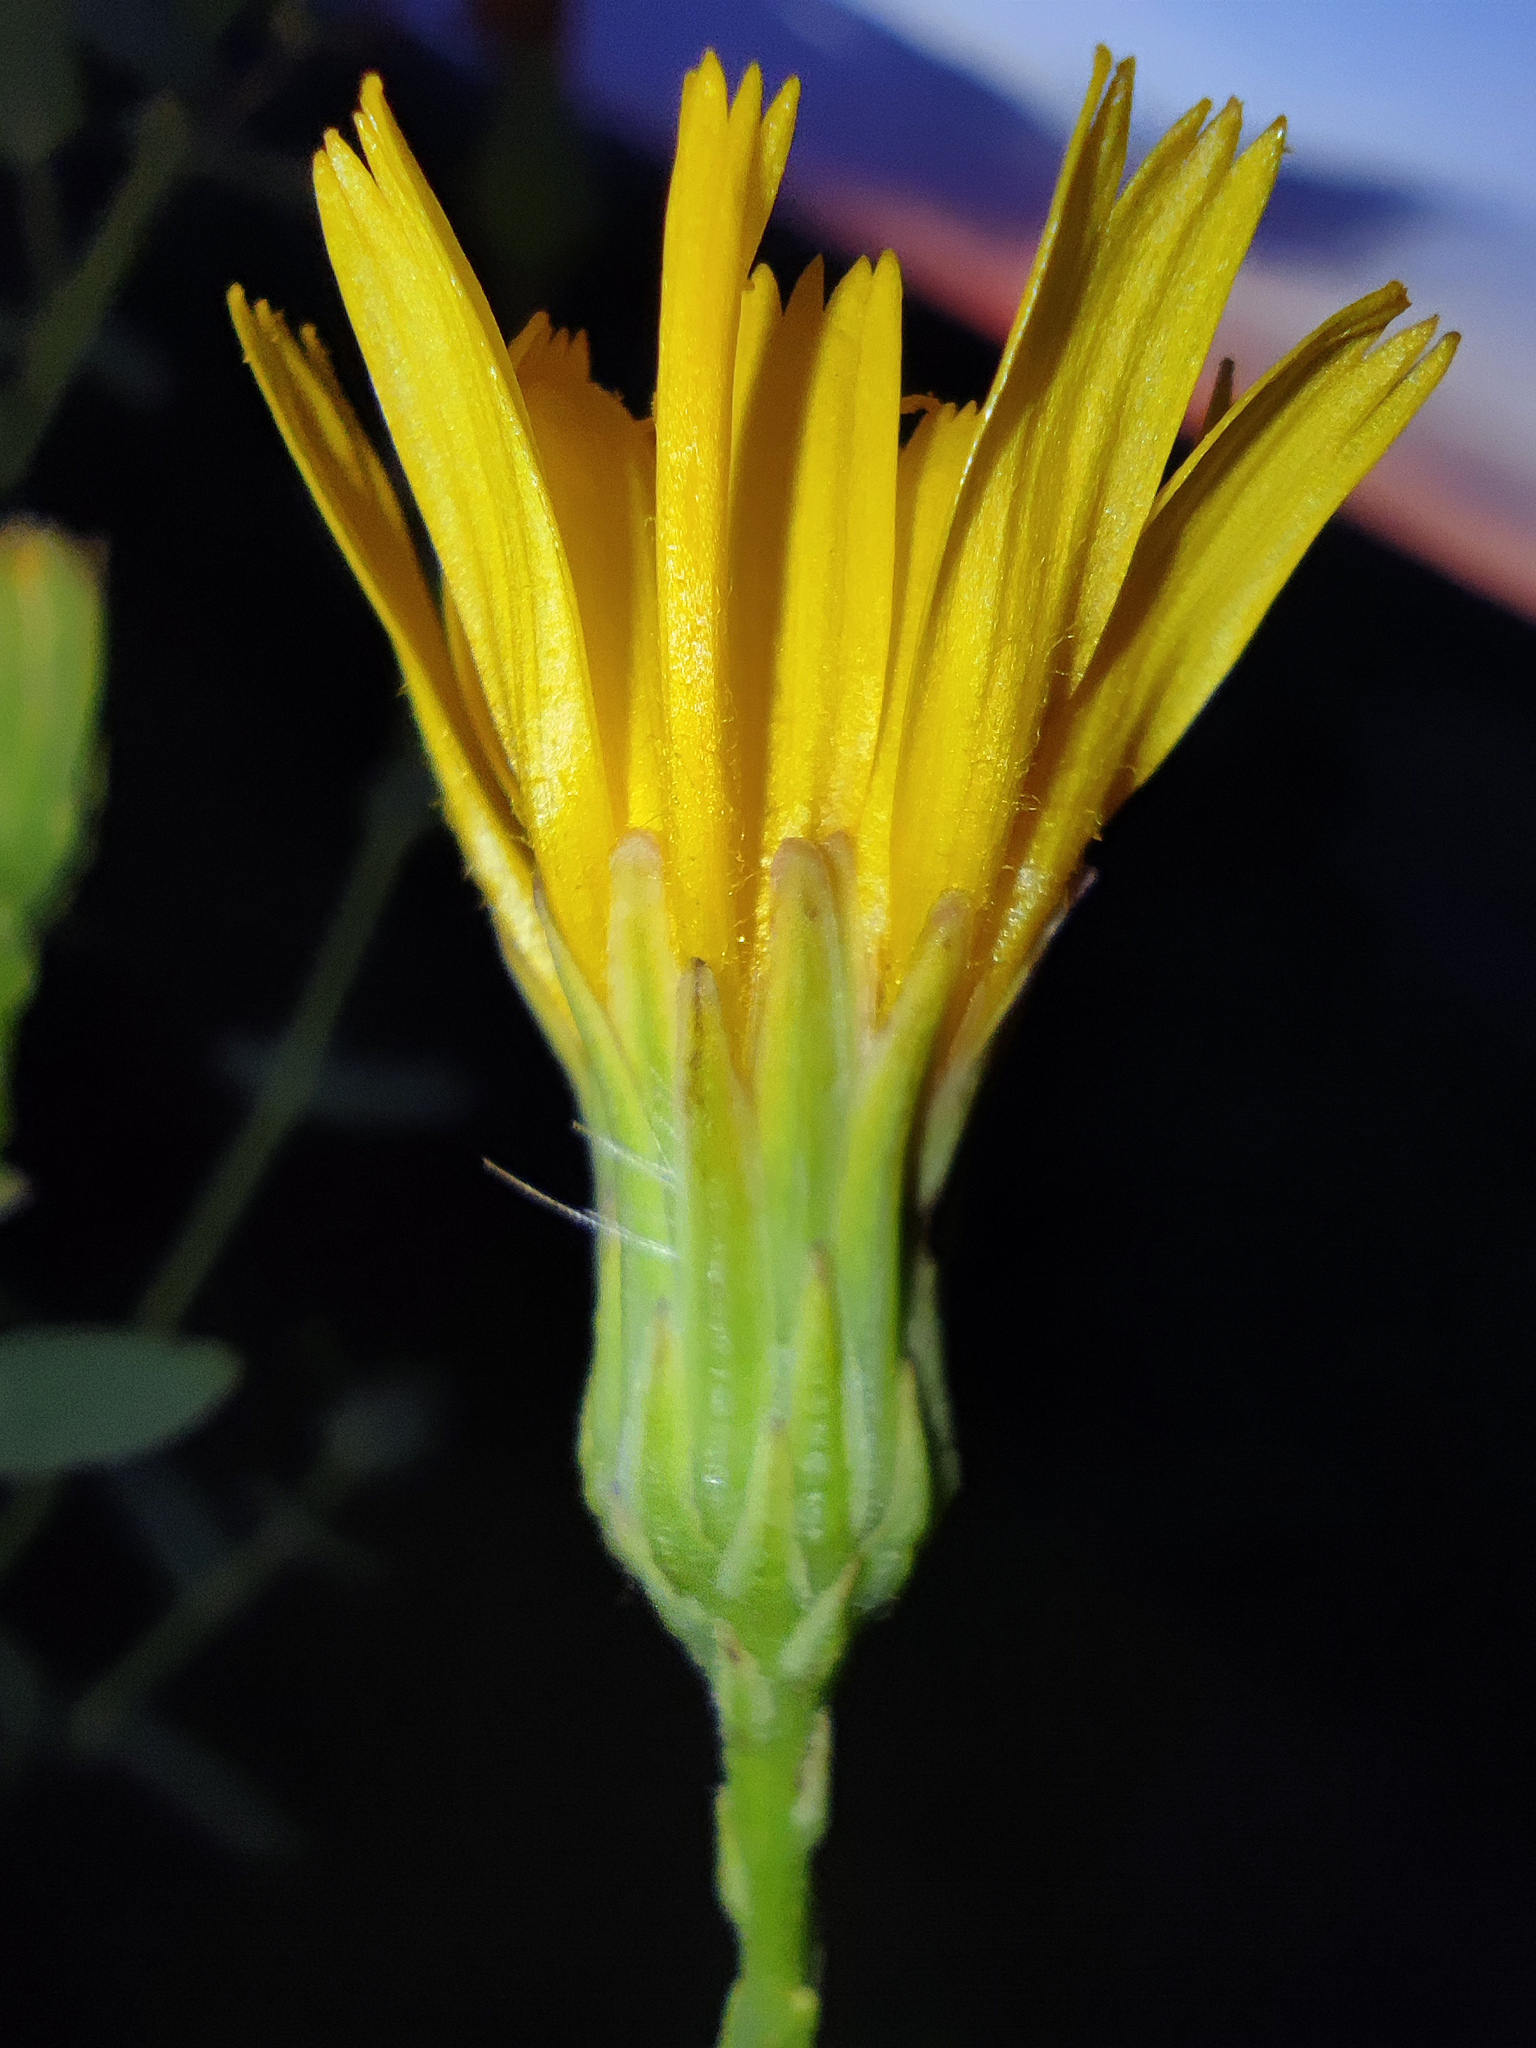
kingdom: Plantae
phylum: Tracheophyta
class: Magnoliopsida
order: Asterales
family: Asteraceae
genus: Hieracium
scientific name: Hieracium robustum
